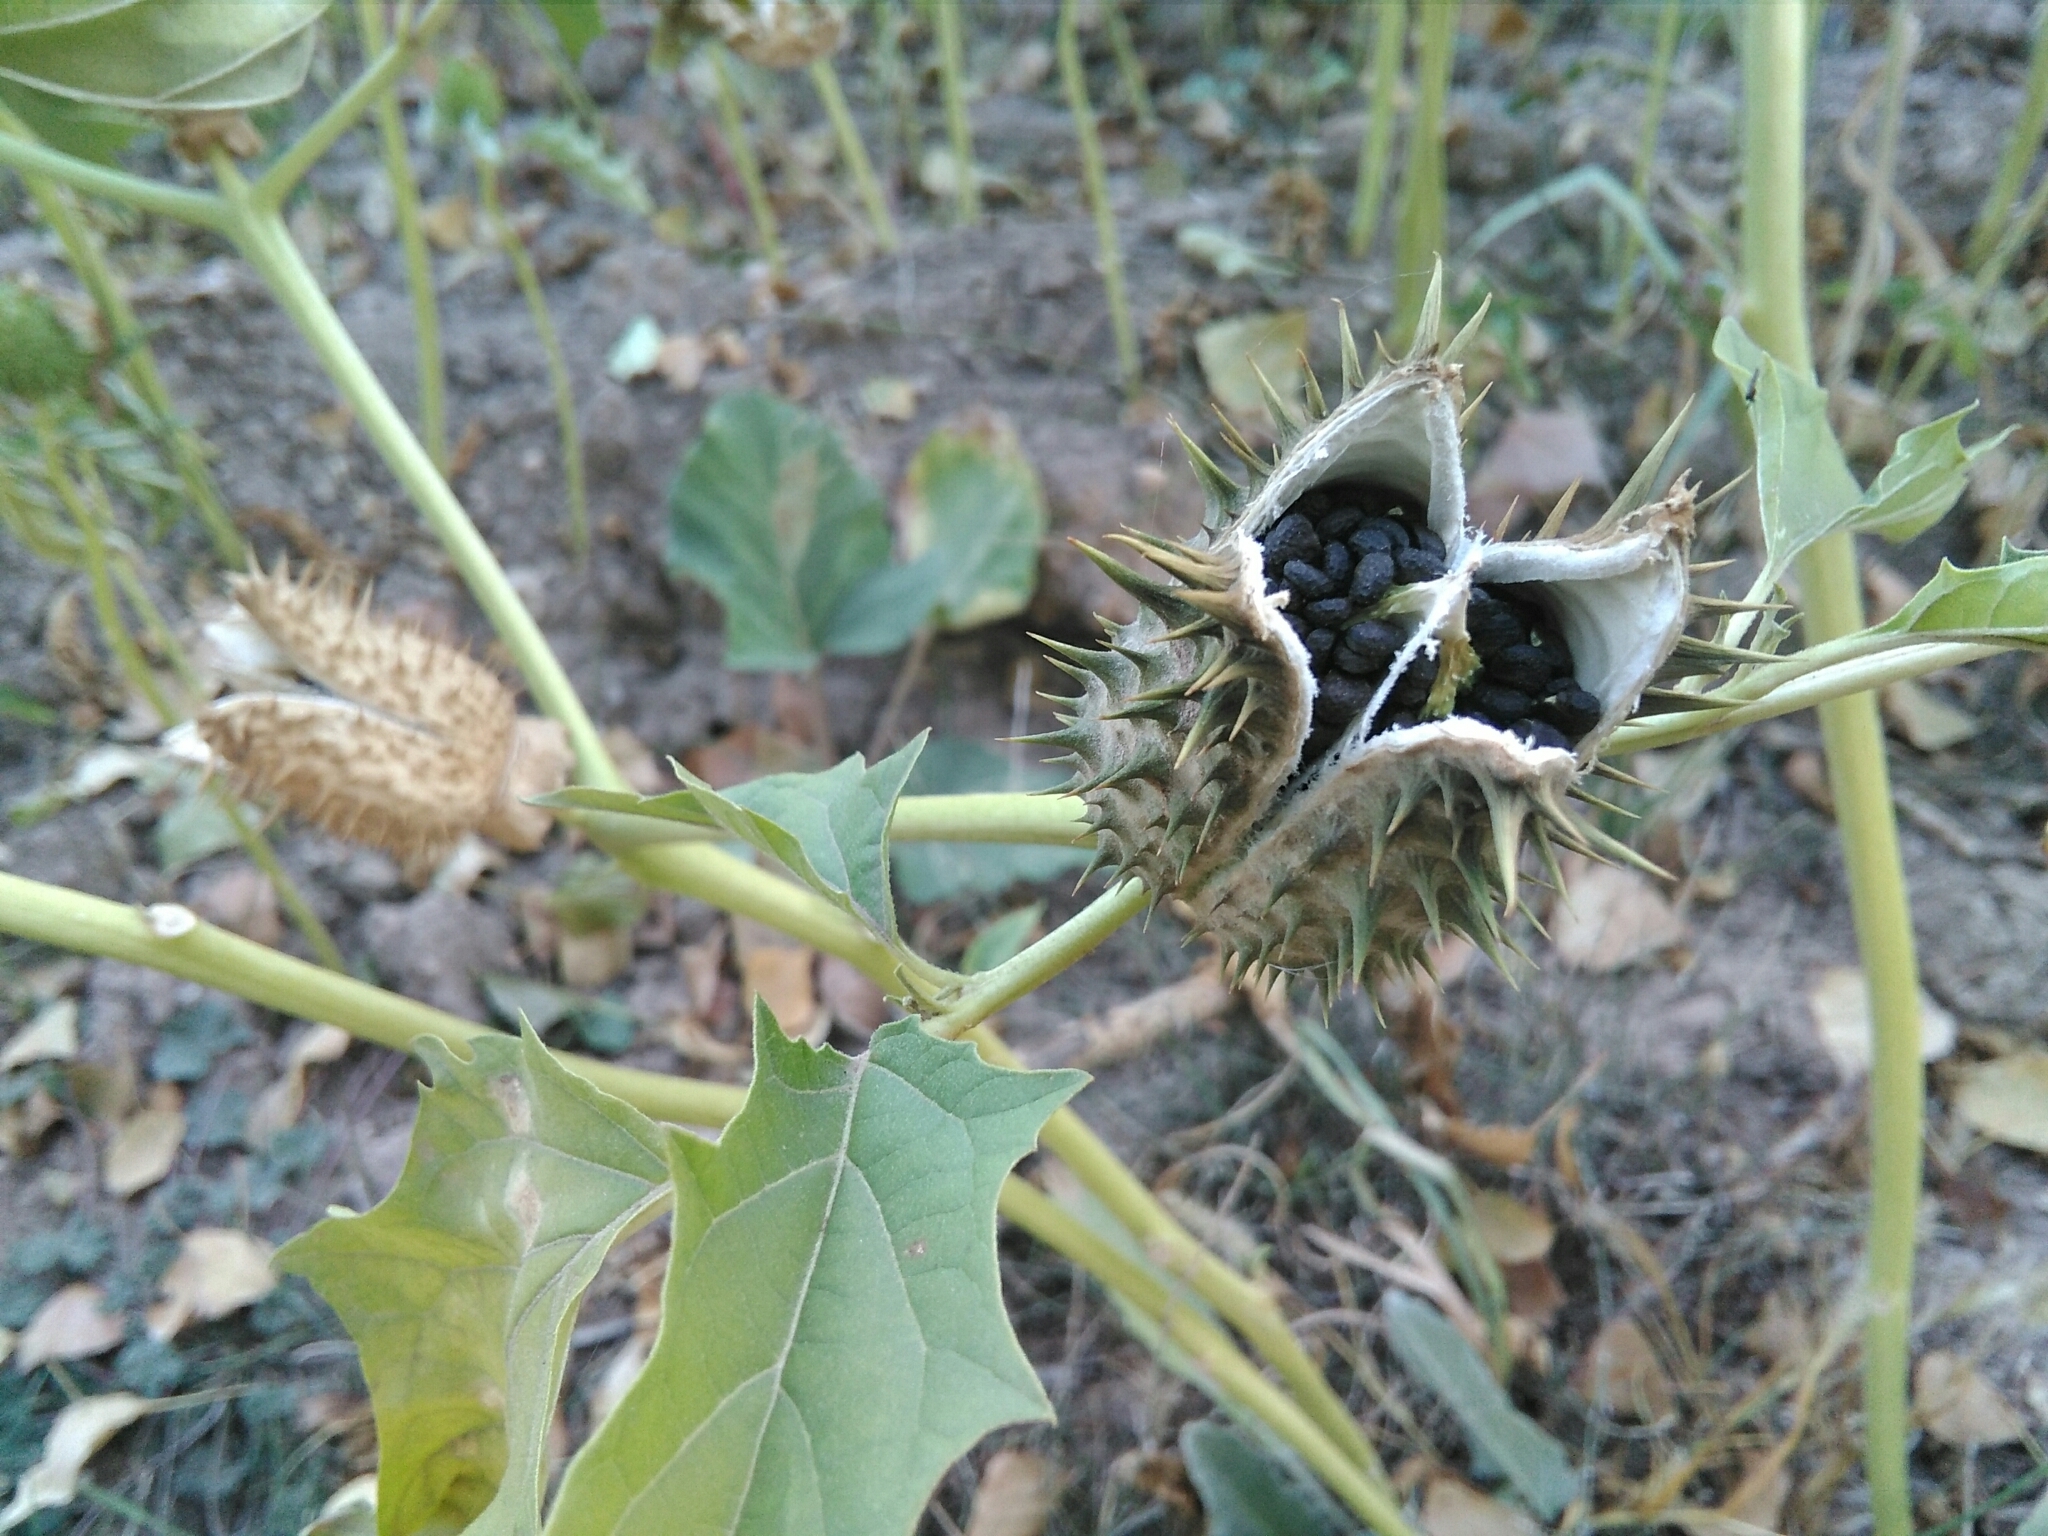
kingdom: Plantae
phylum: Tracheophyta
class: Magnoliopsida
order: Solanales
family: Solanaceae
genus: Datura
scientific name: Datura stramonium
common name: Thorn-apple
